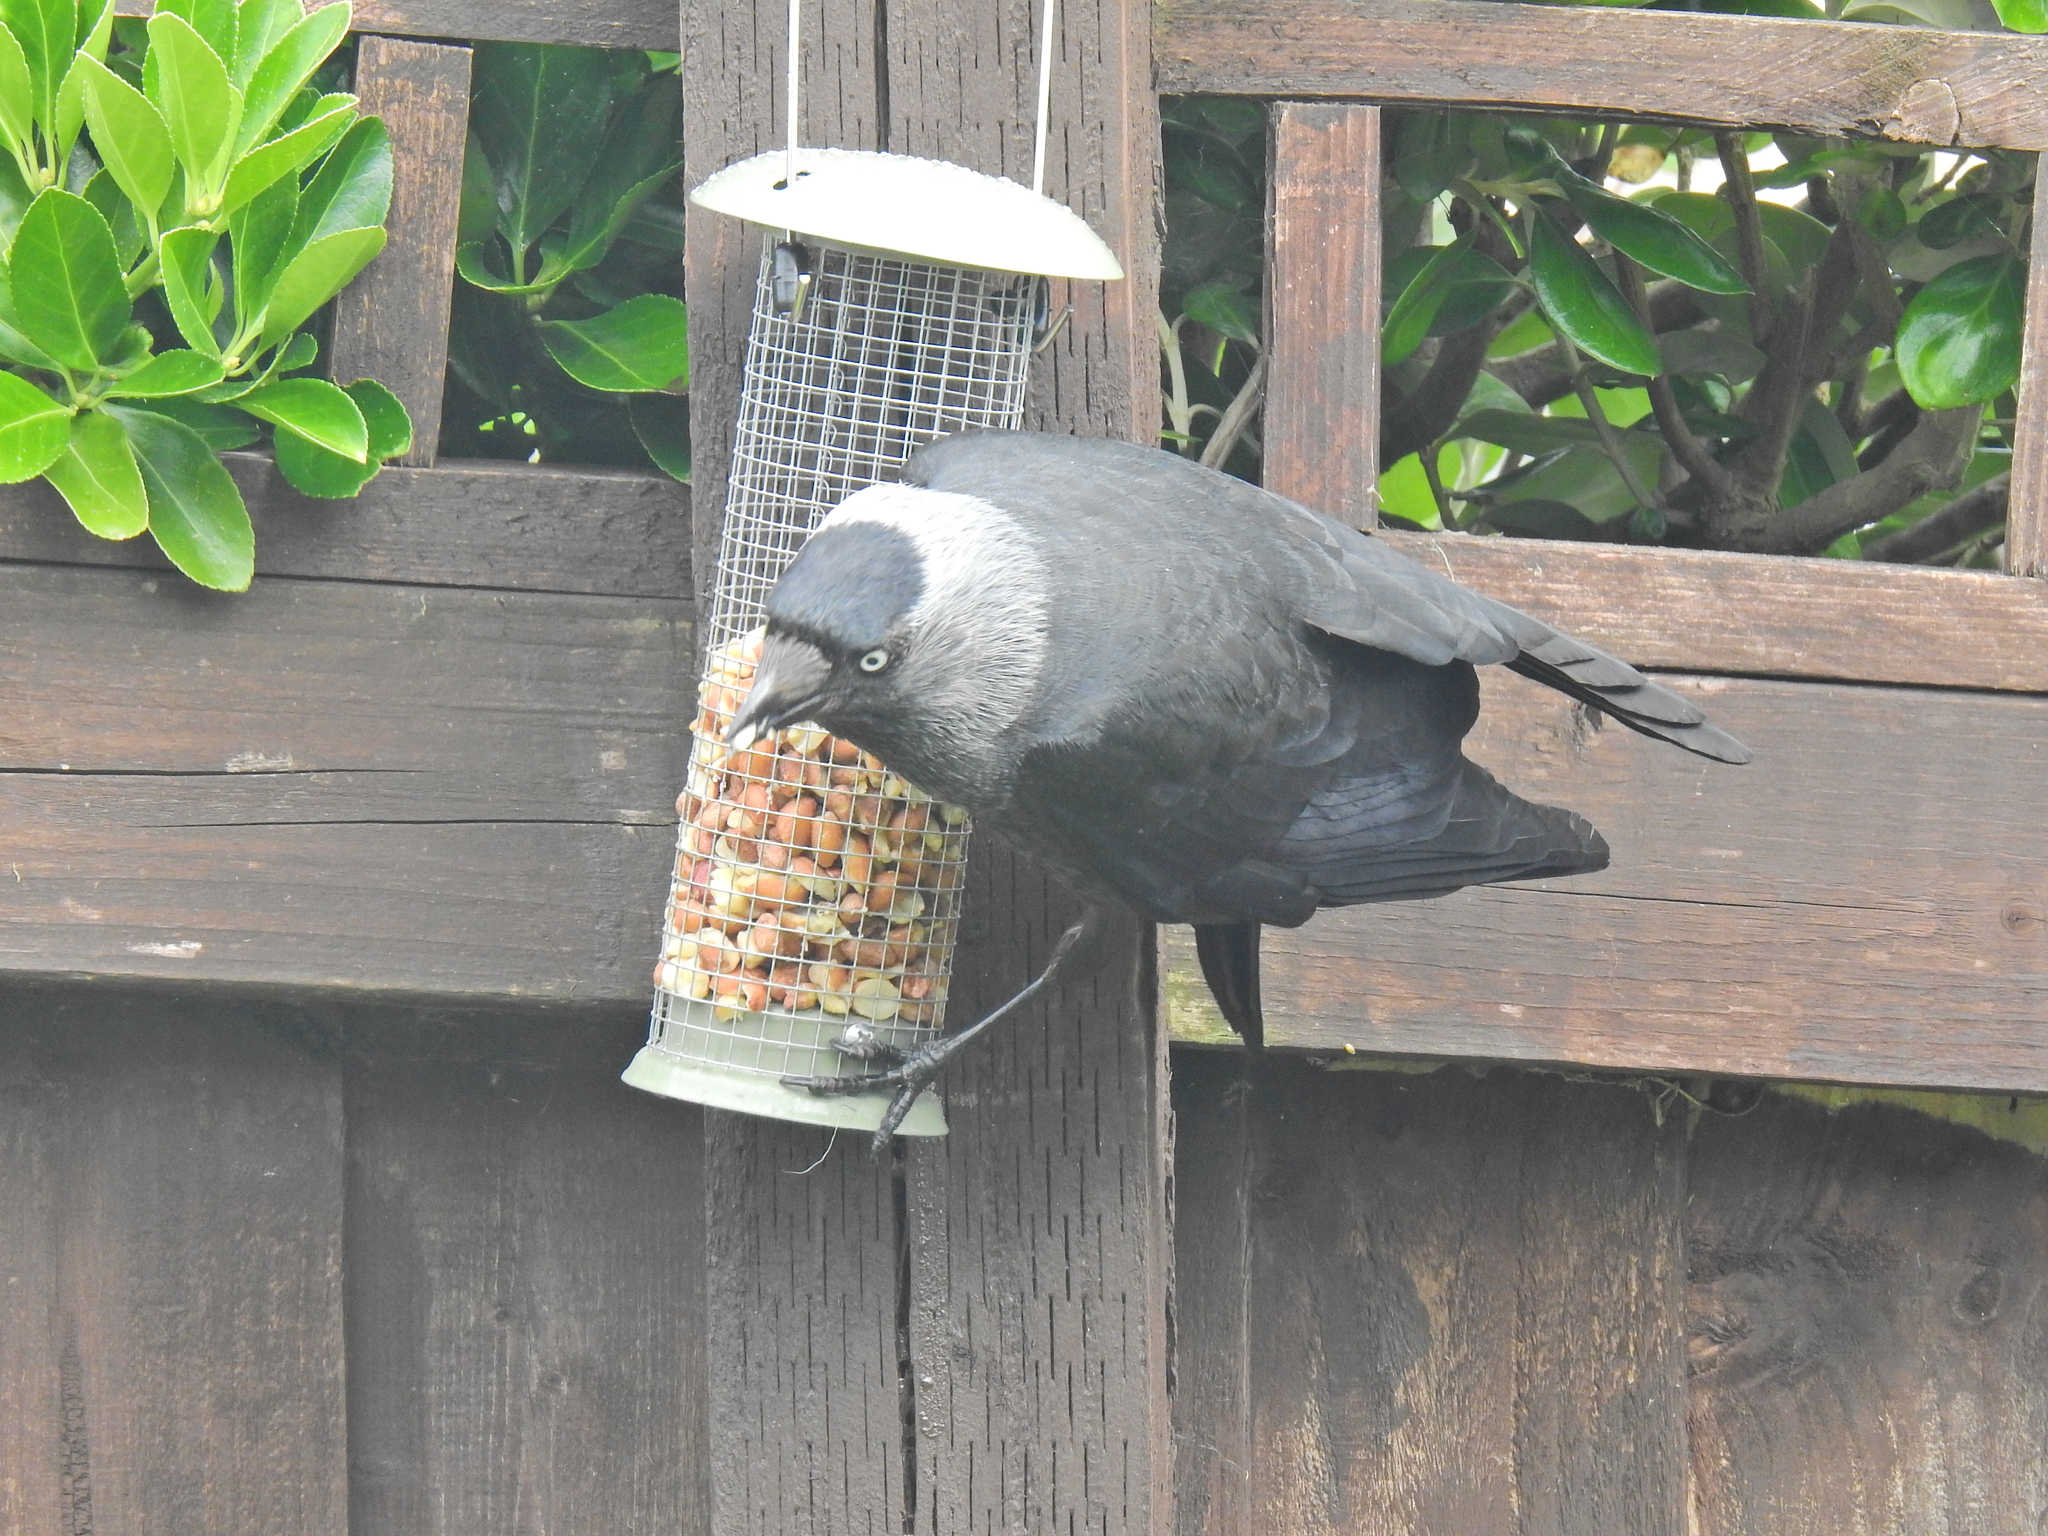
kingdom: Animalia
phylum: Chordata
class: Aves
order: Passeriformes
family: Corvidae
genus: Coloeus
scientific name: Coloeus monedula
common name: Western jackdaw
